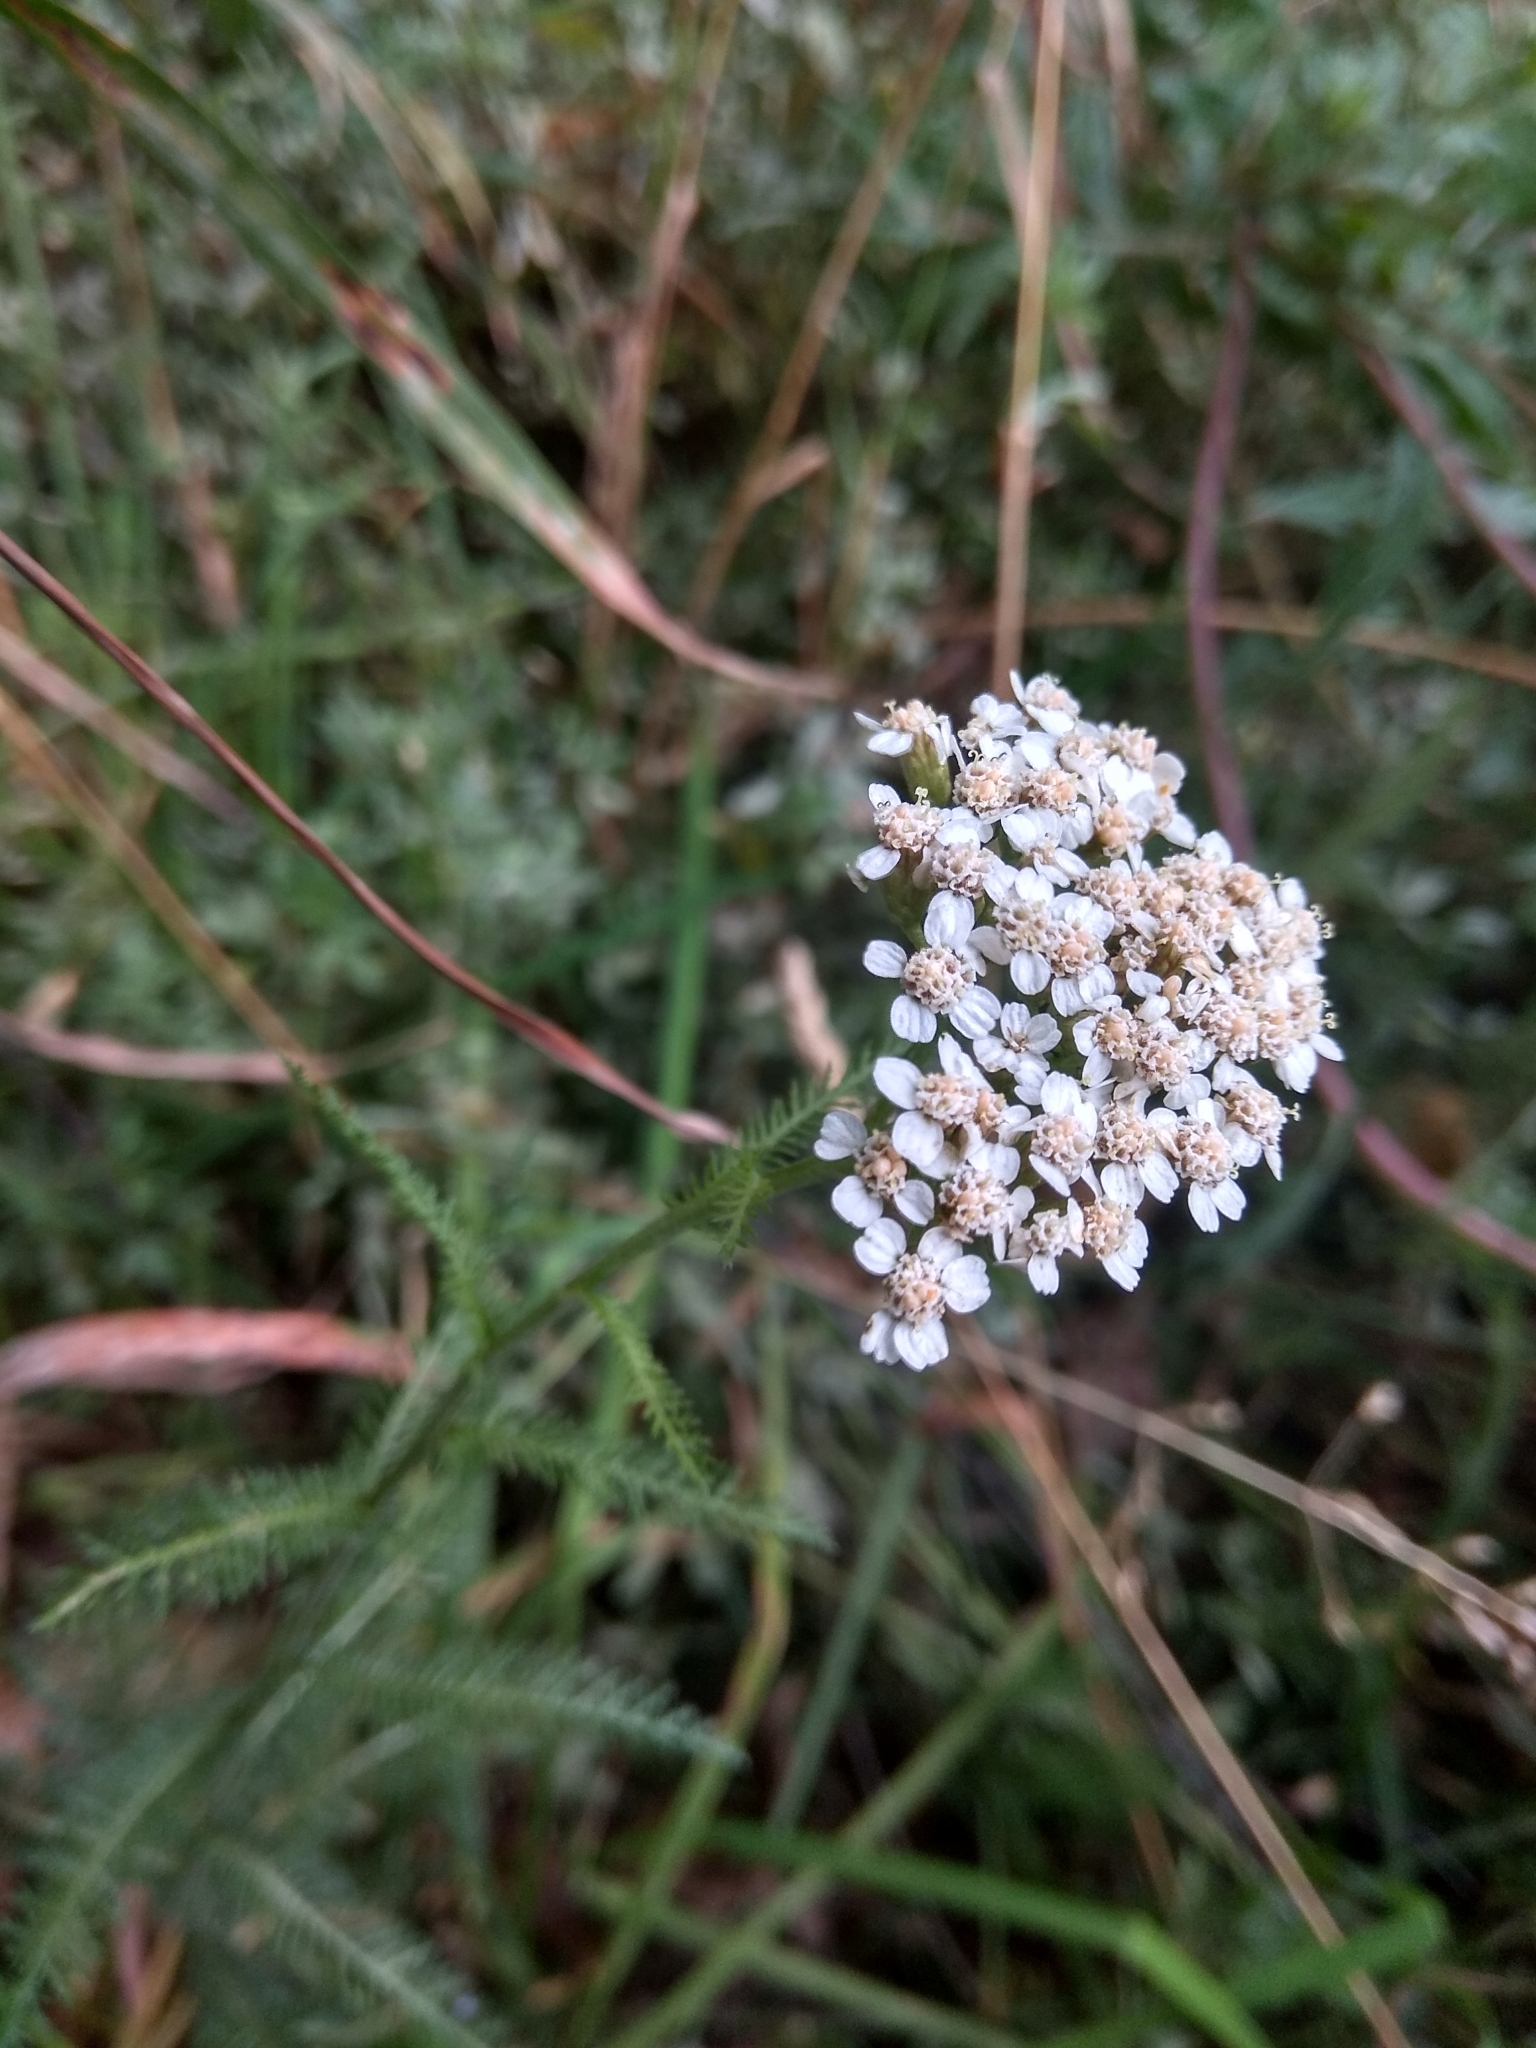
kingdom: Plantae
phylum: Tracheophyta
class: Magnoliopsida
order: Asterales
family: Asteraceae
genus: Achillea
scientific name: Achillea millefolium
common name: Yarrow
